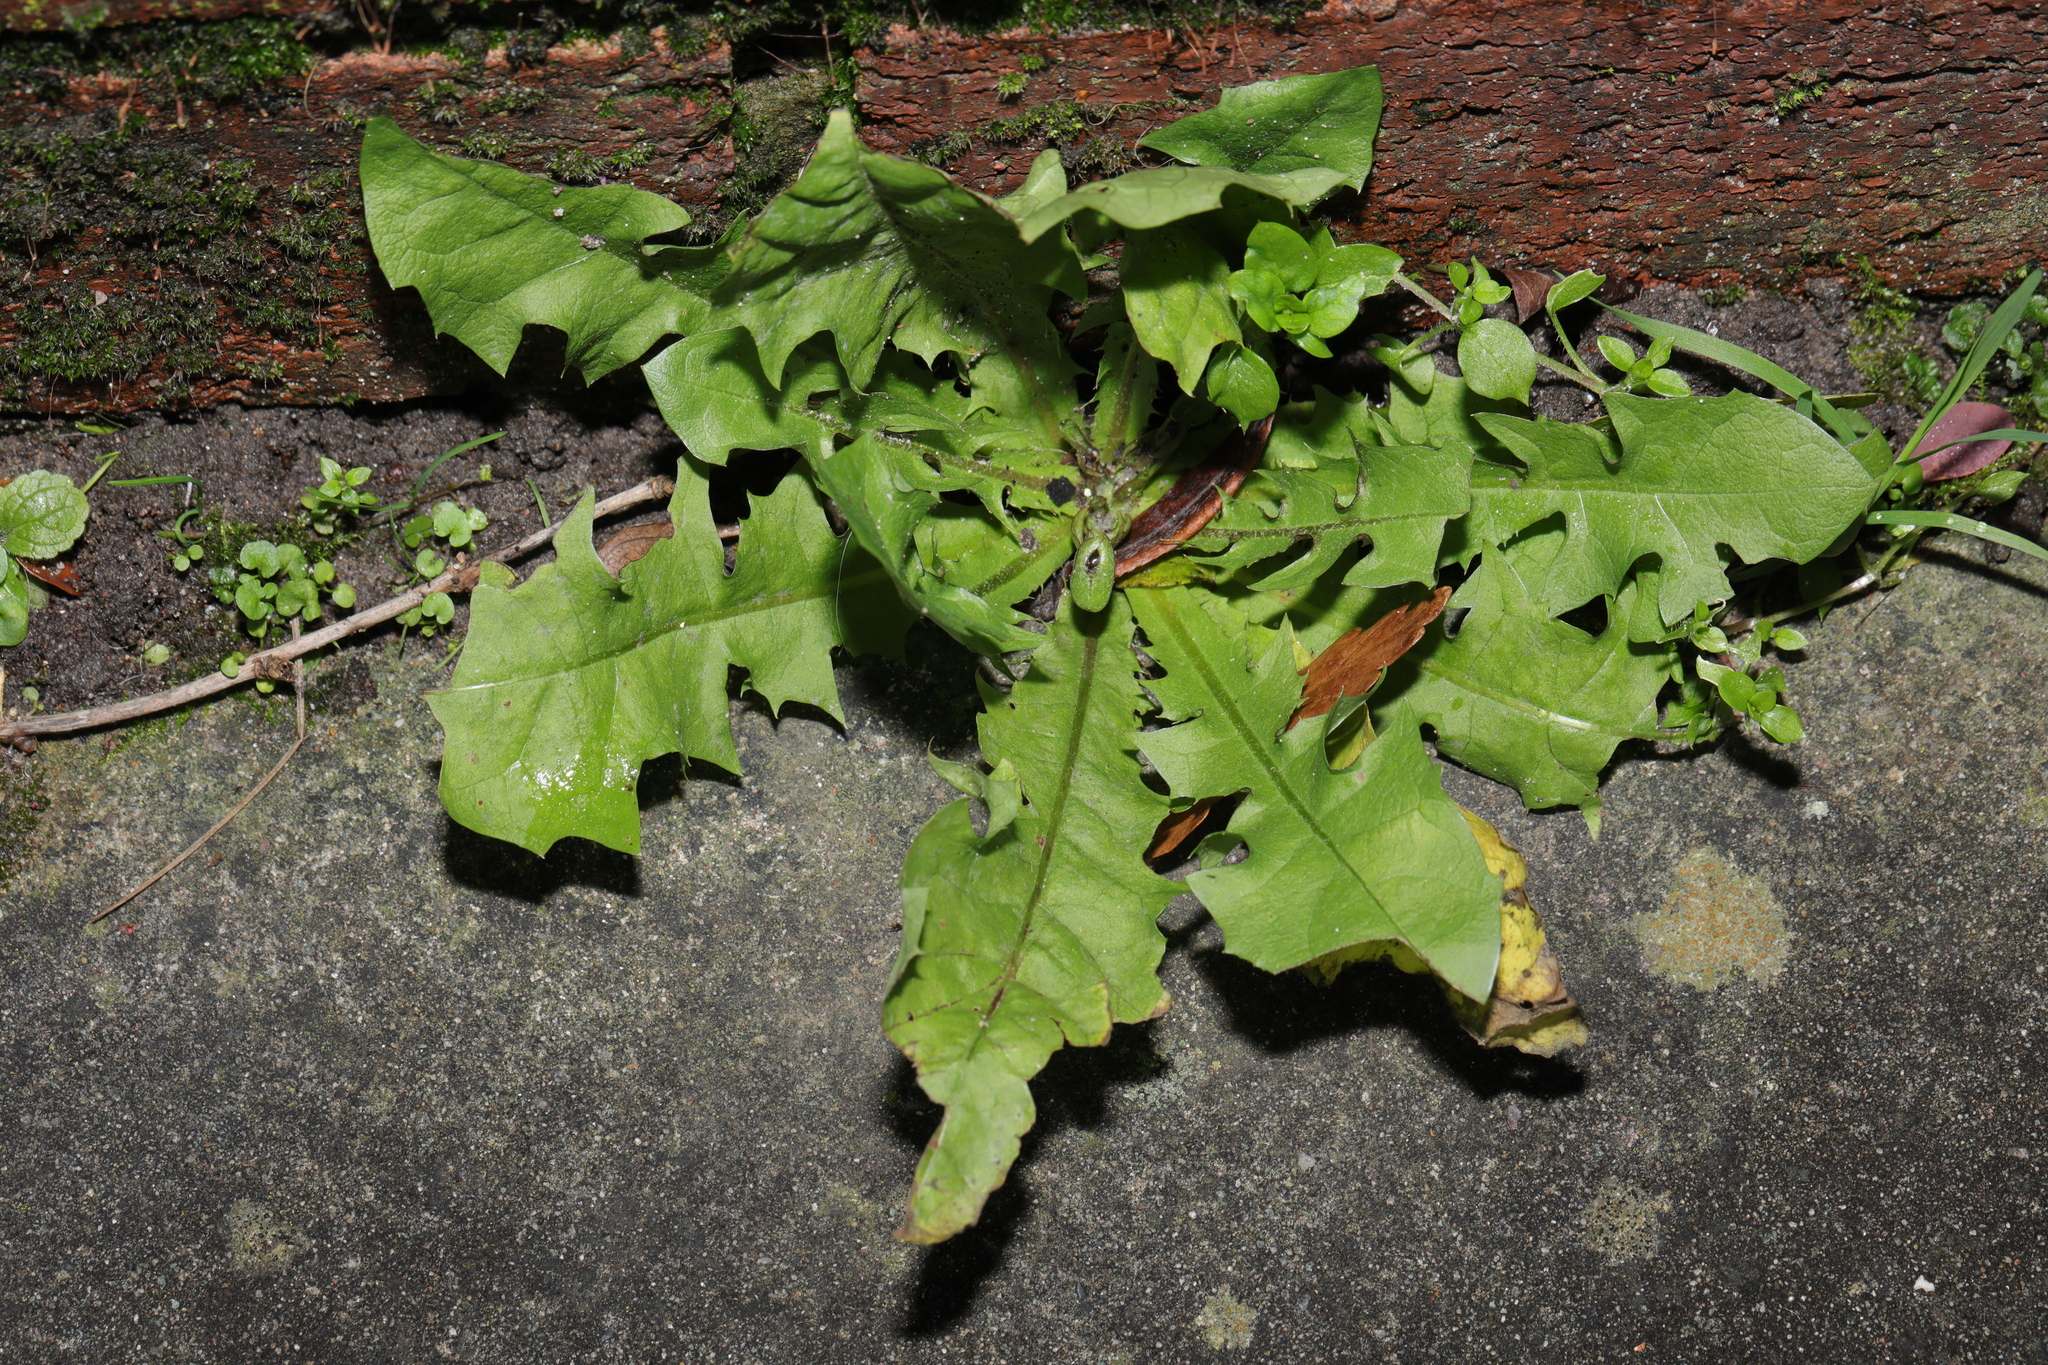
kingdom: Plantae
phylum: Tracheophyta
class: Magnoliopsida
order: Asterales
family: Asteraceae
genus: Taraxacum
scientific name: Taraxacum officinale
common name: Common dandelion
